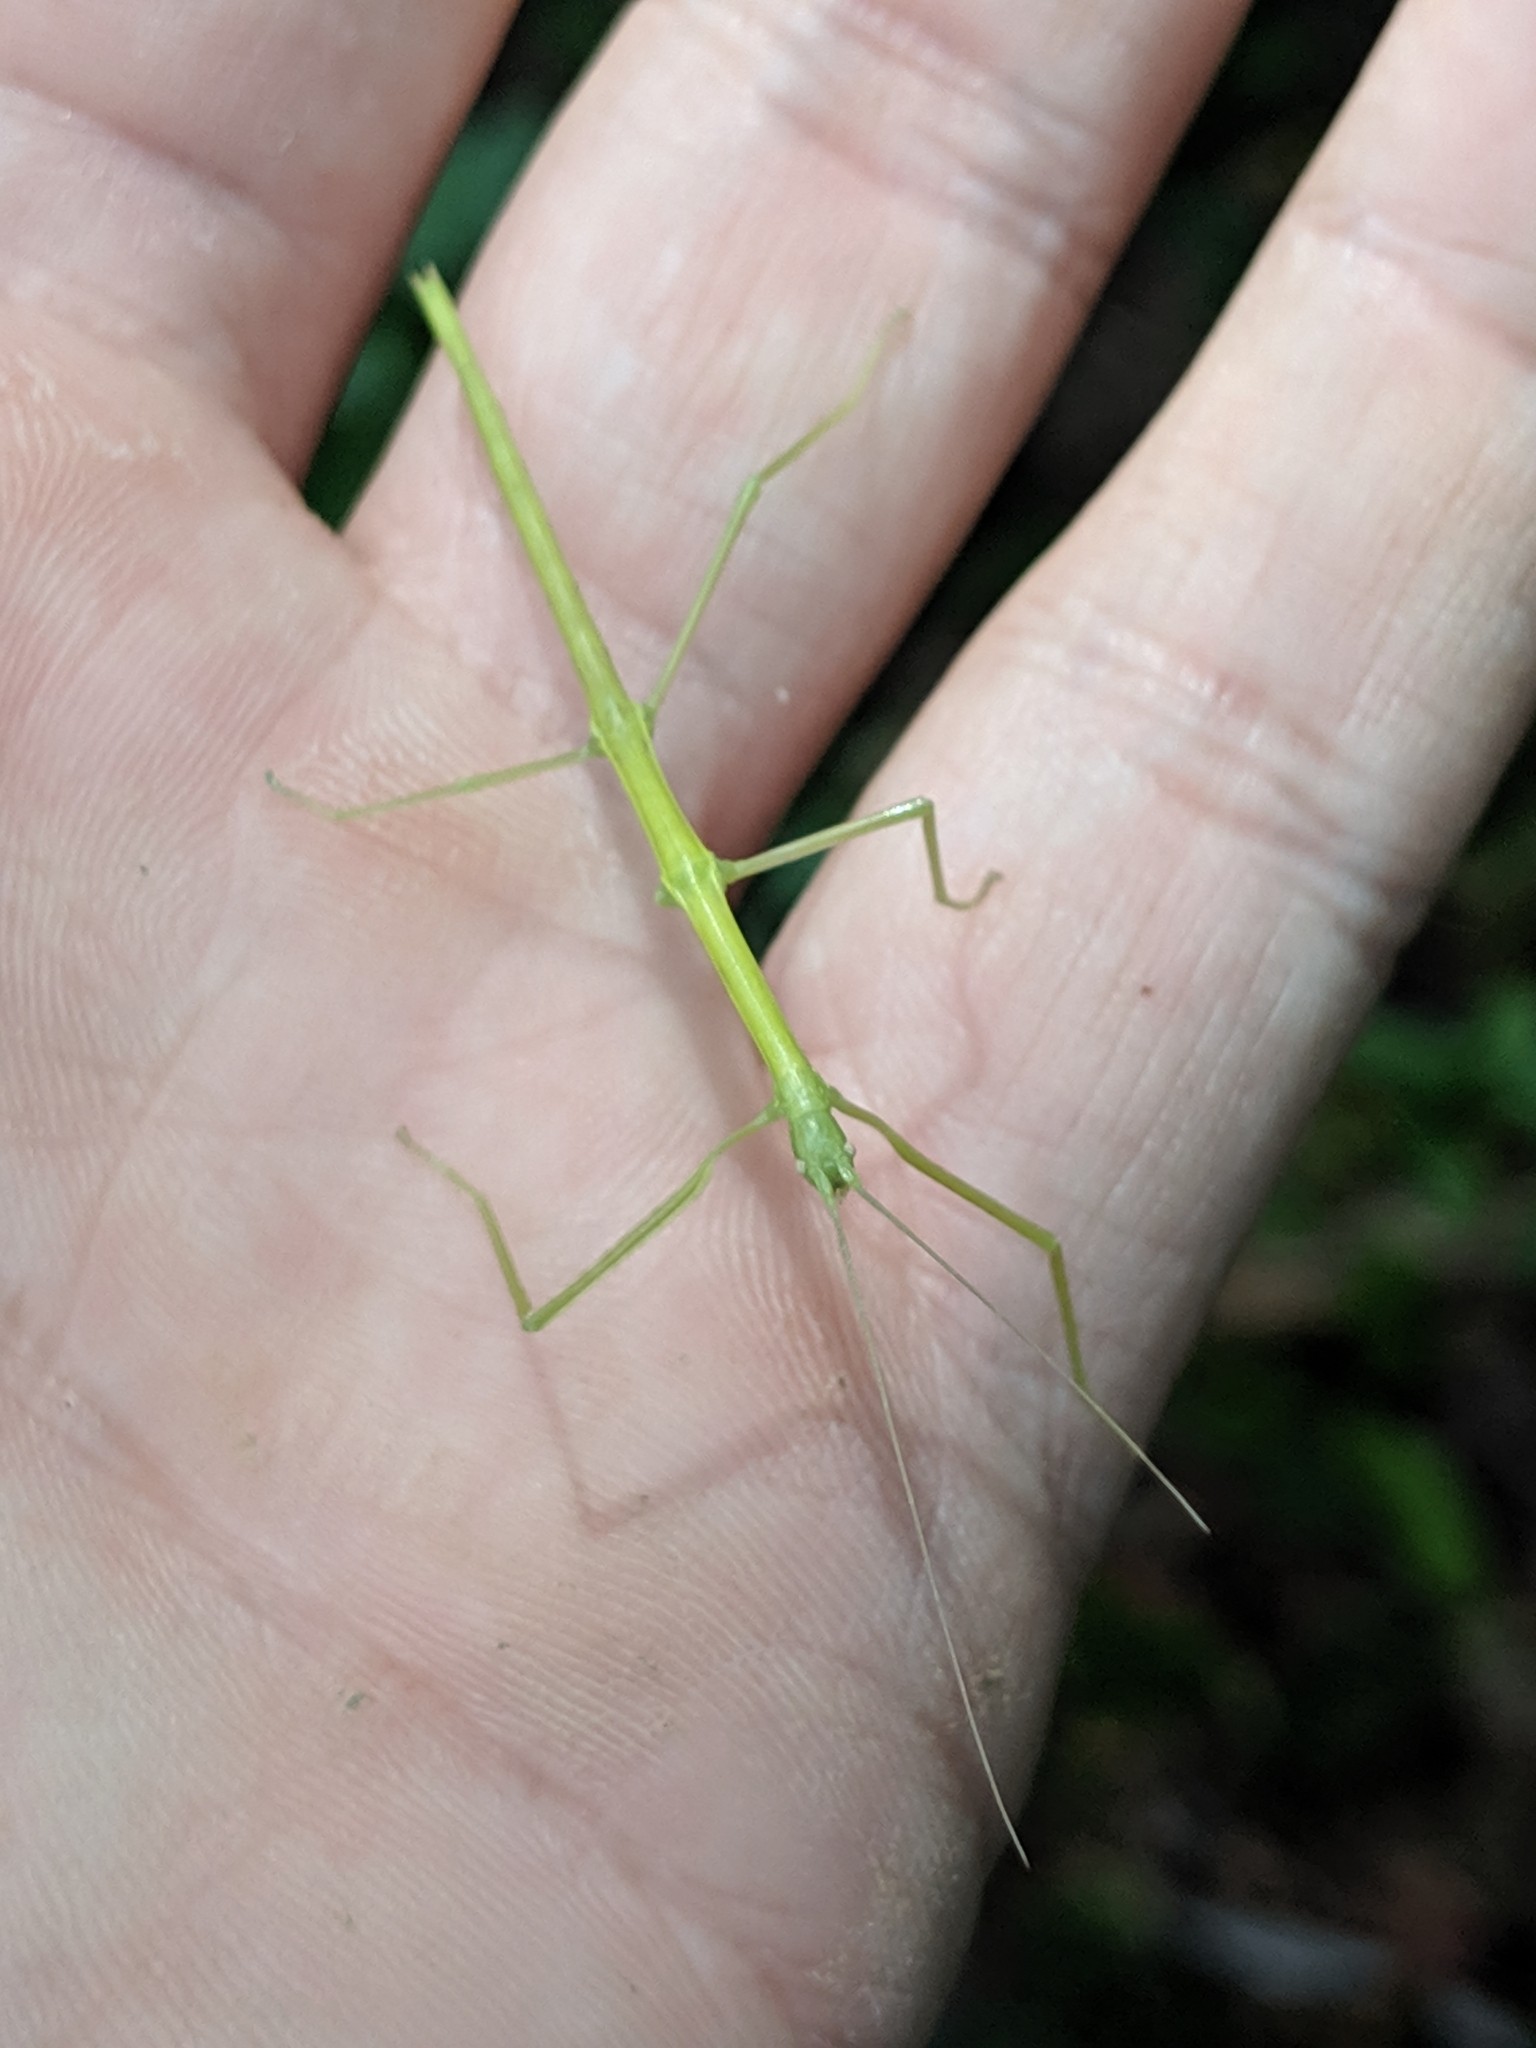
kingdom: Animalia
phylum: Arthropoda
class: Insecta
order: Phasmida
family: Diapheromeridae
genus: Diapheromera
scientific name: Diapheromera femorata
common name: Common american walkingstick
